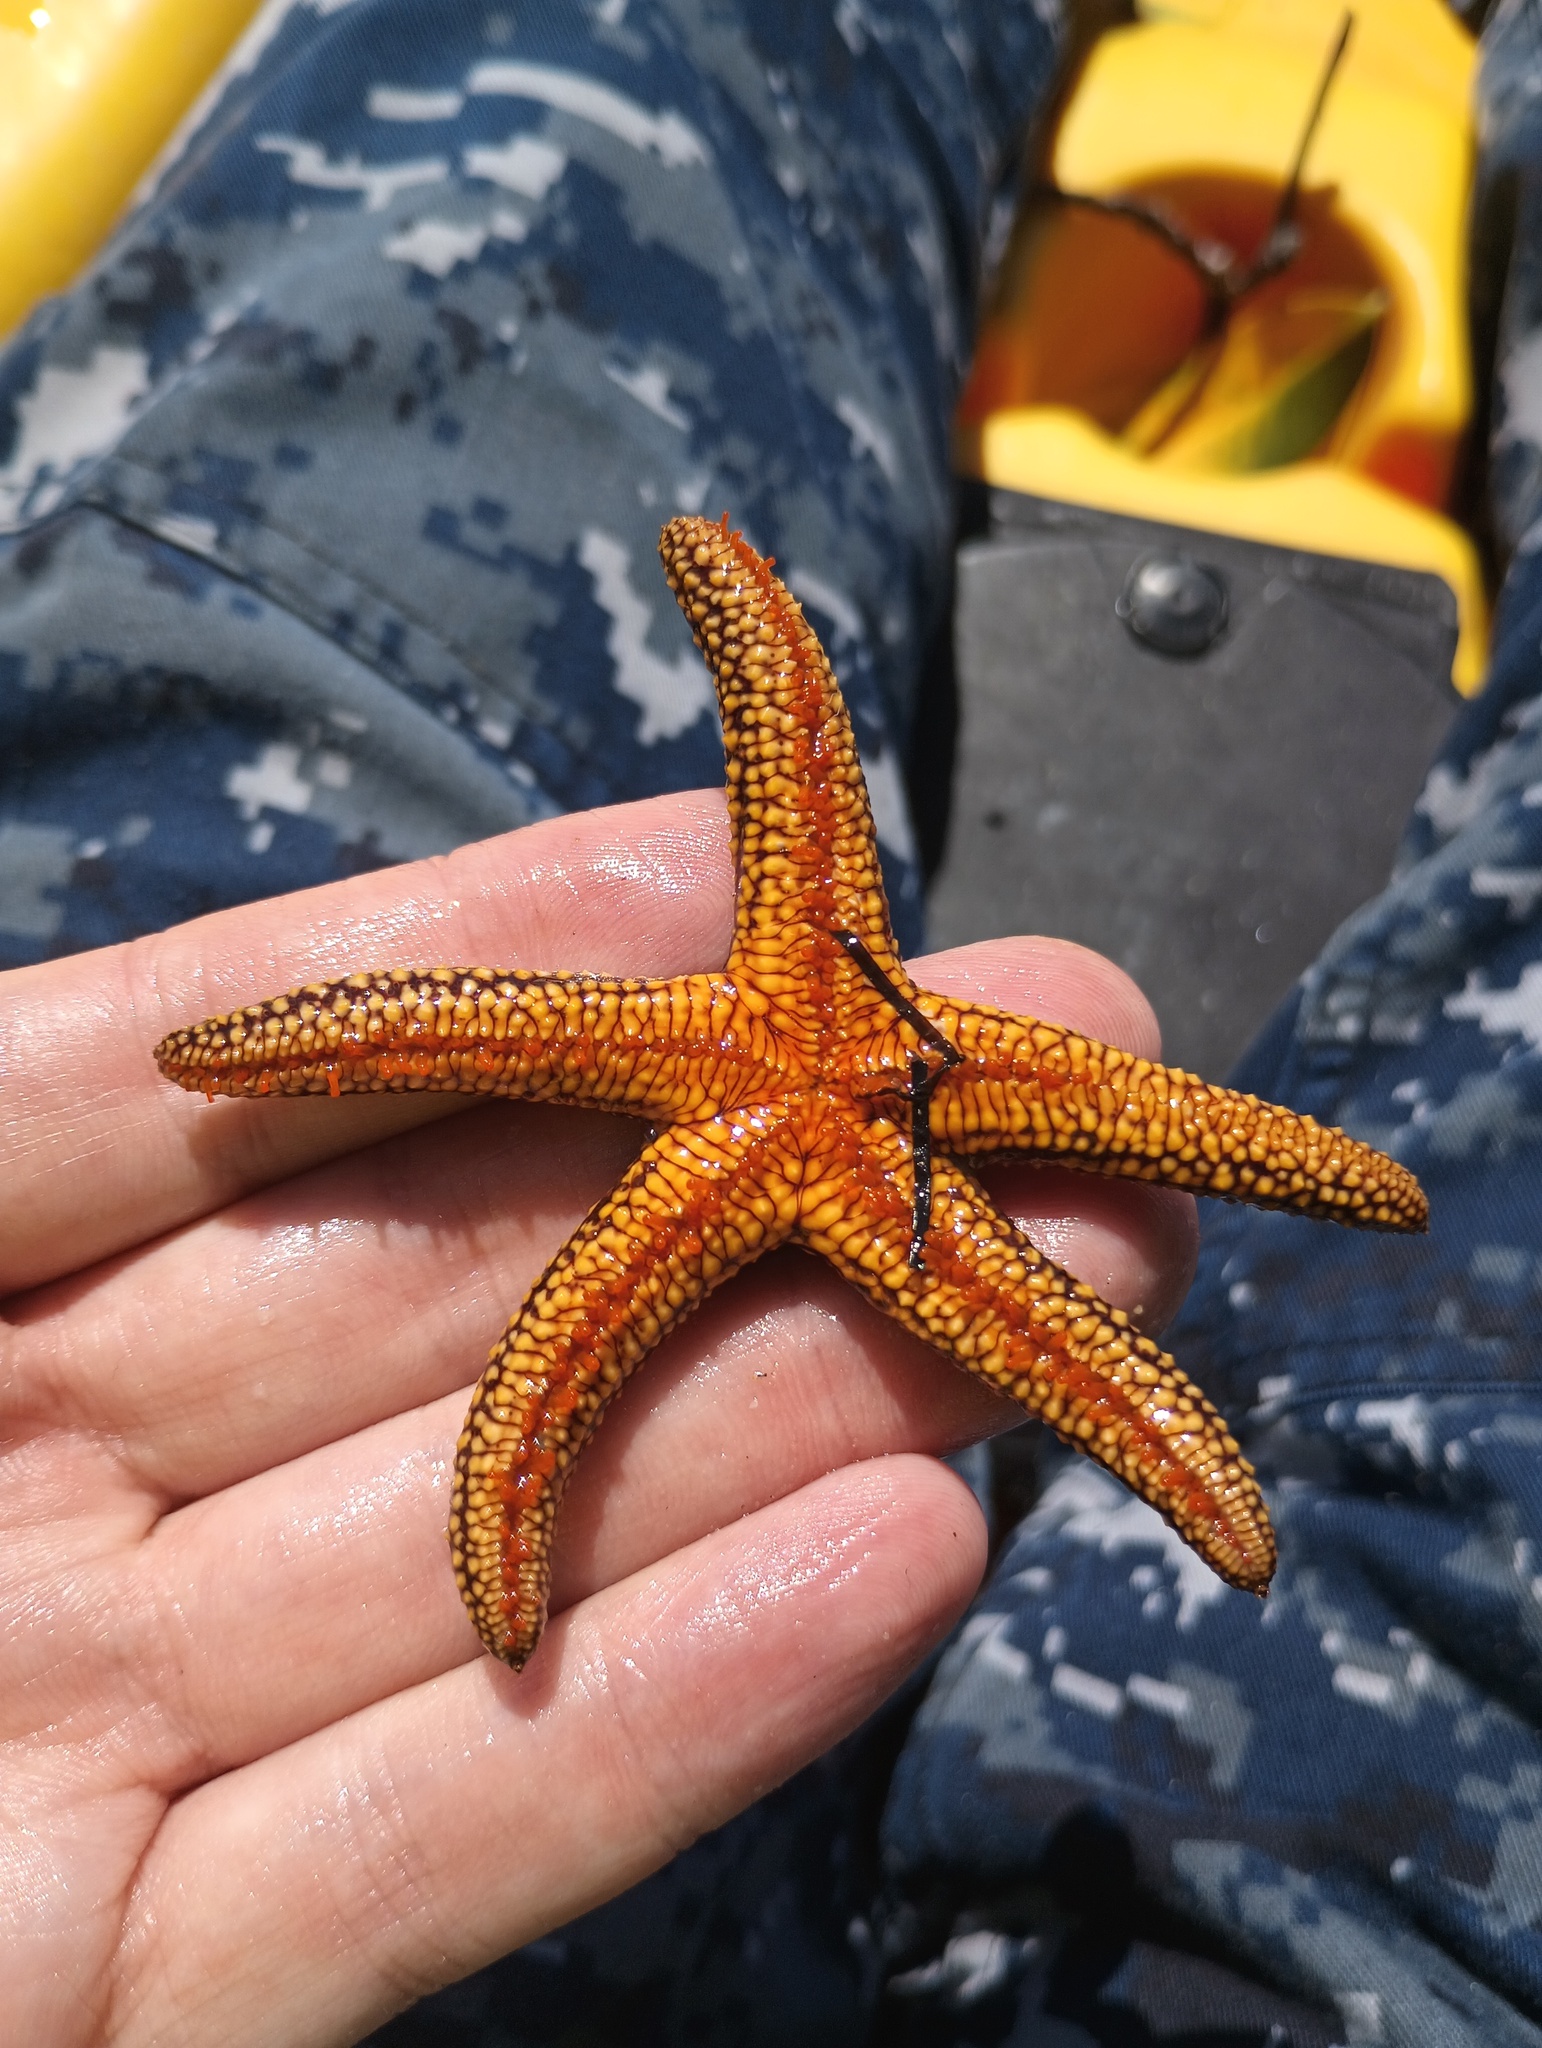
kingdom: Animalia
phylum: Echinodermata
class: Asteroidea
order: Spinulosida
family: Echinasteridae
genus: Echinaster
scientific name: Echinaster sentus
